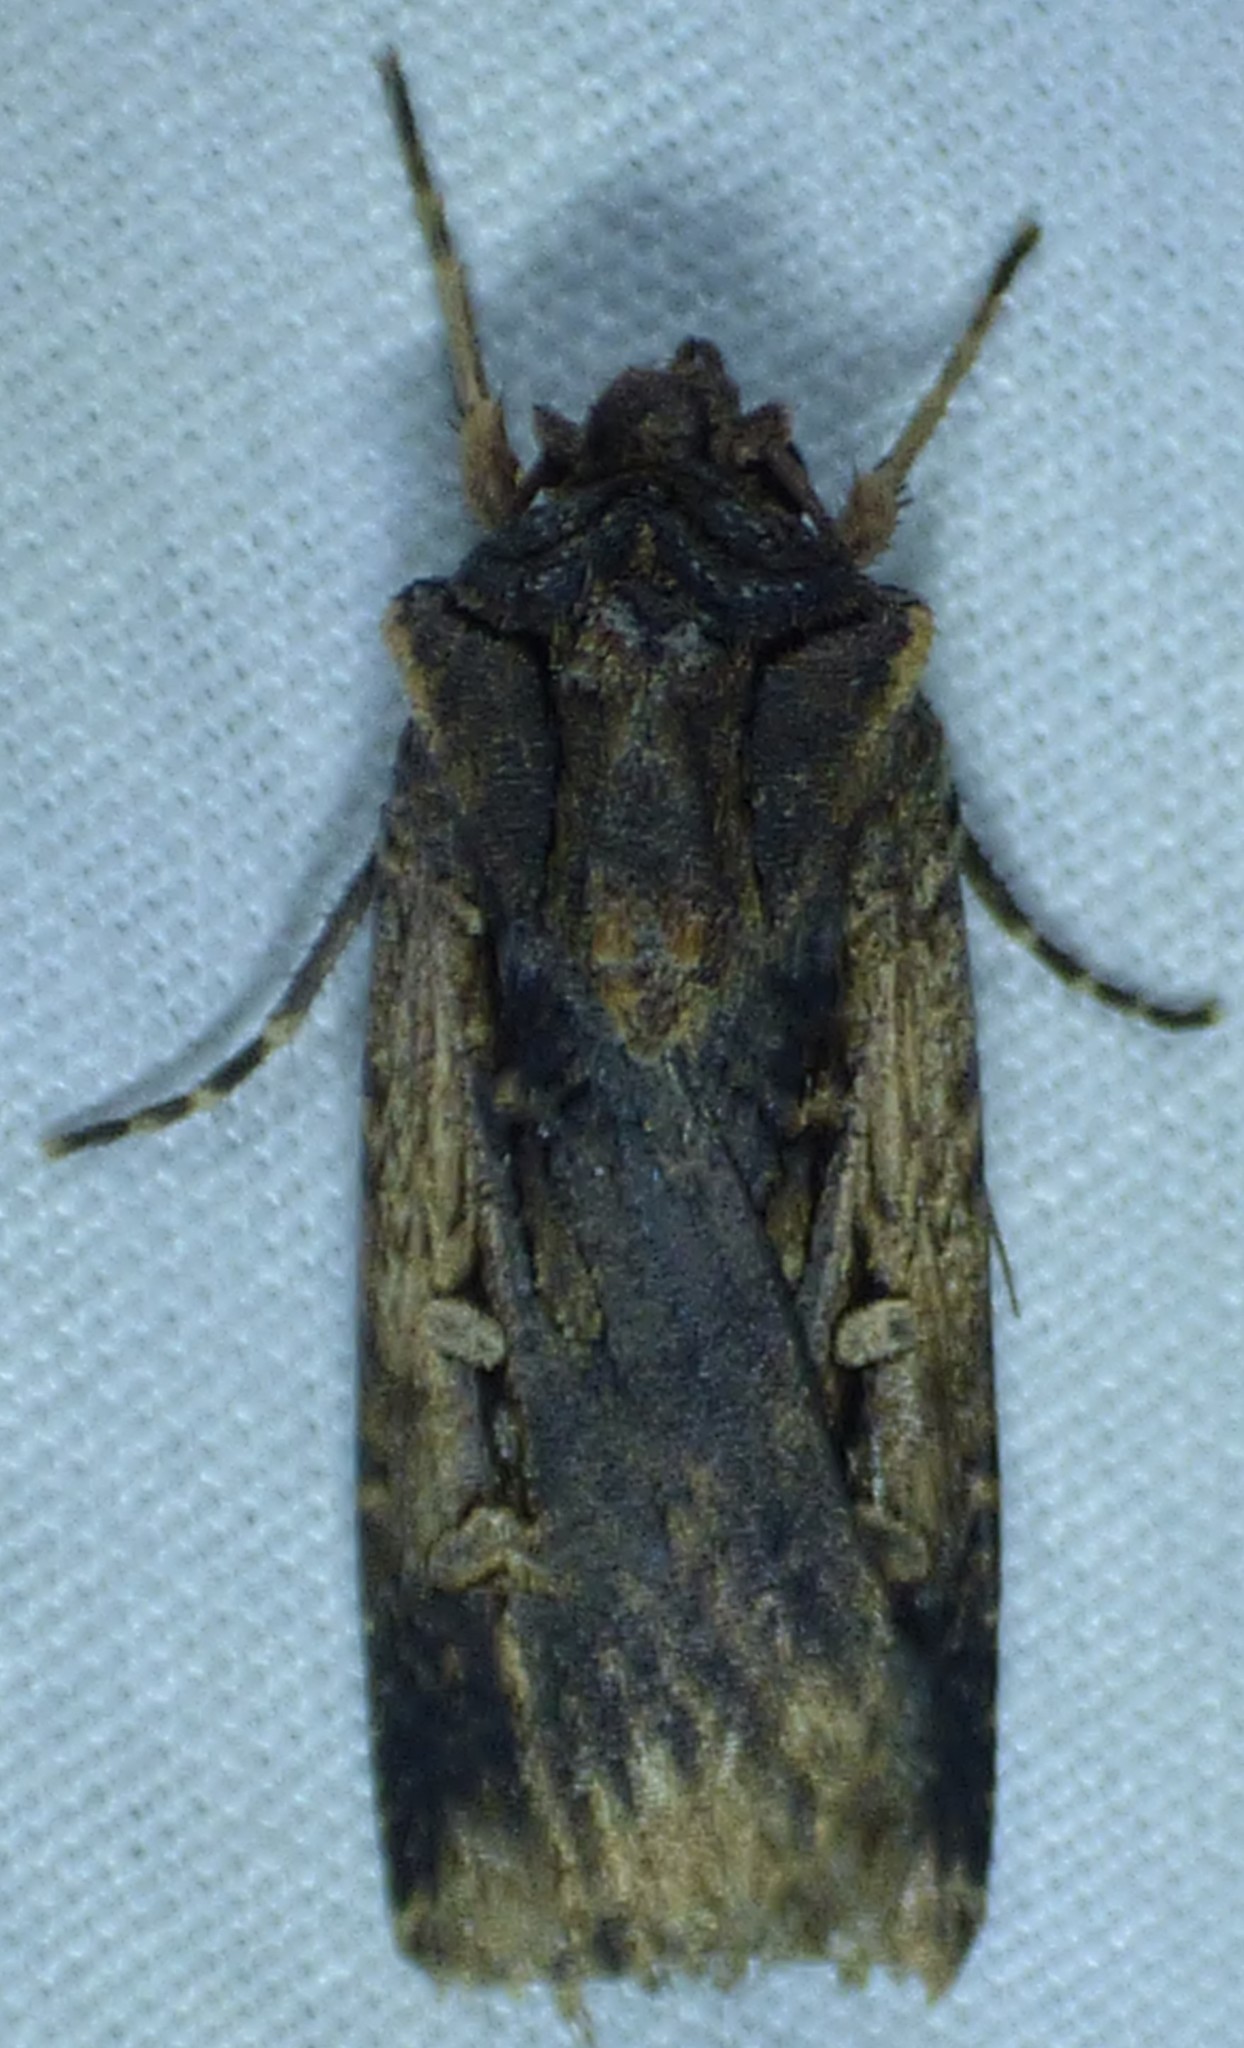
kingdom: Animalia
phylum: Arthropoda
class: Insecta
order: Lepidoptera
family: Noctuidae
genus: Feltia
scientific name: Feltia subterranea
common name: Granulate cutworm
